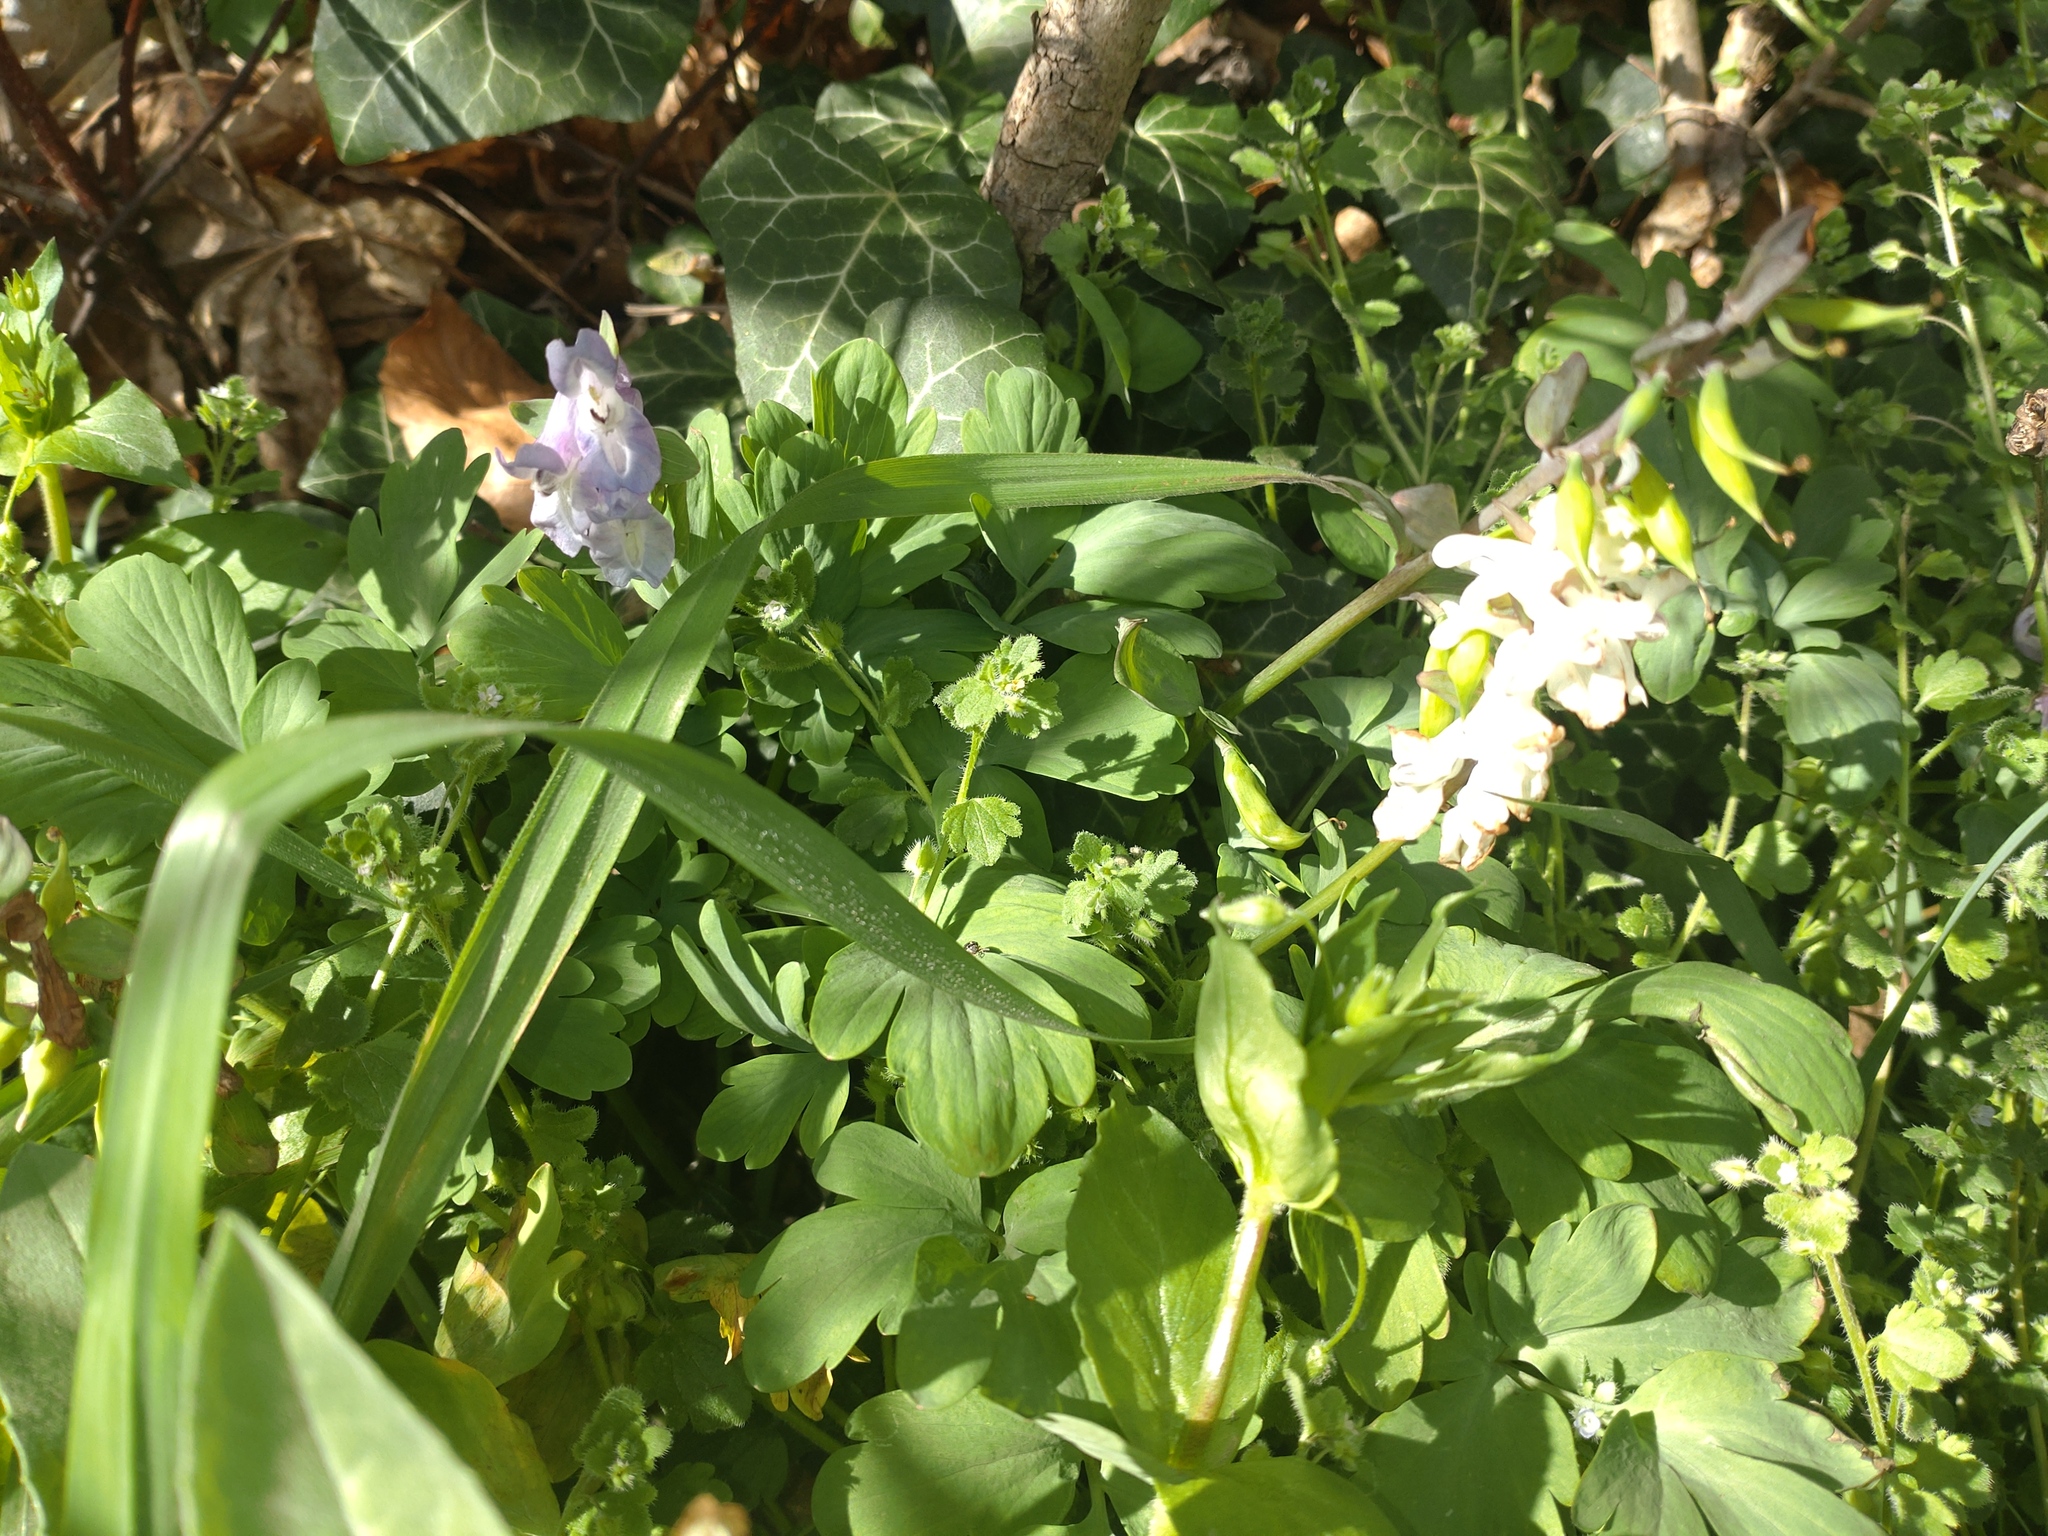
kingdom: Plantae
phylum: Tracheophyta
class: Magnoliopsida
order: Ranunculales
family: Papaveraceae
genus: Corydalis
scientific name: Corydalis cava
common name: Hollowroot
